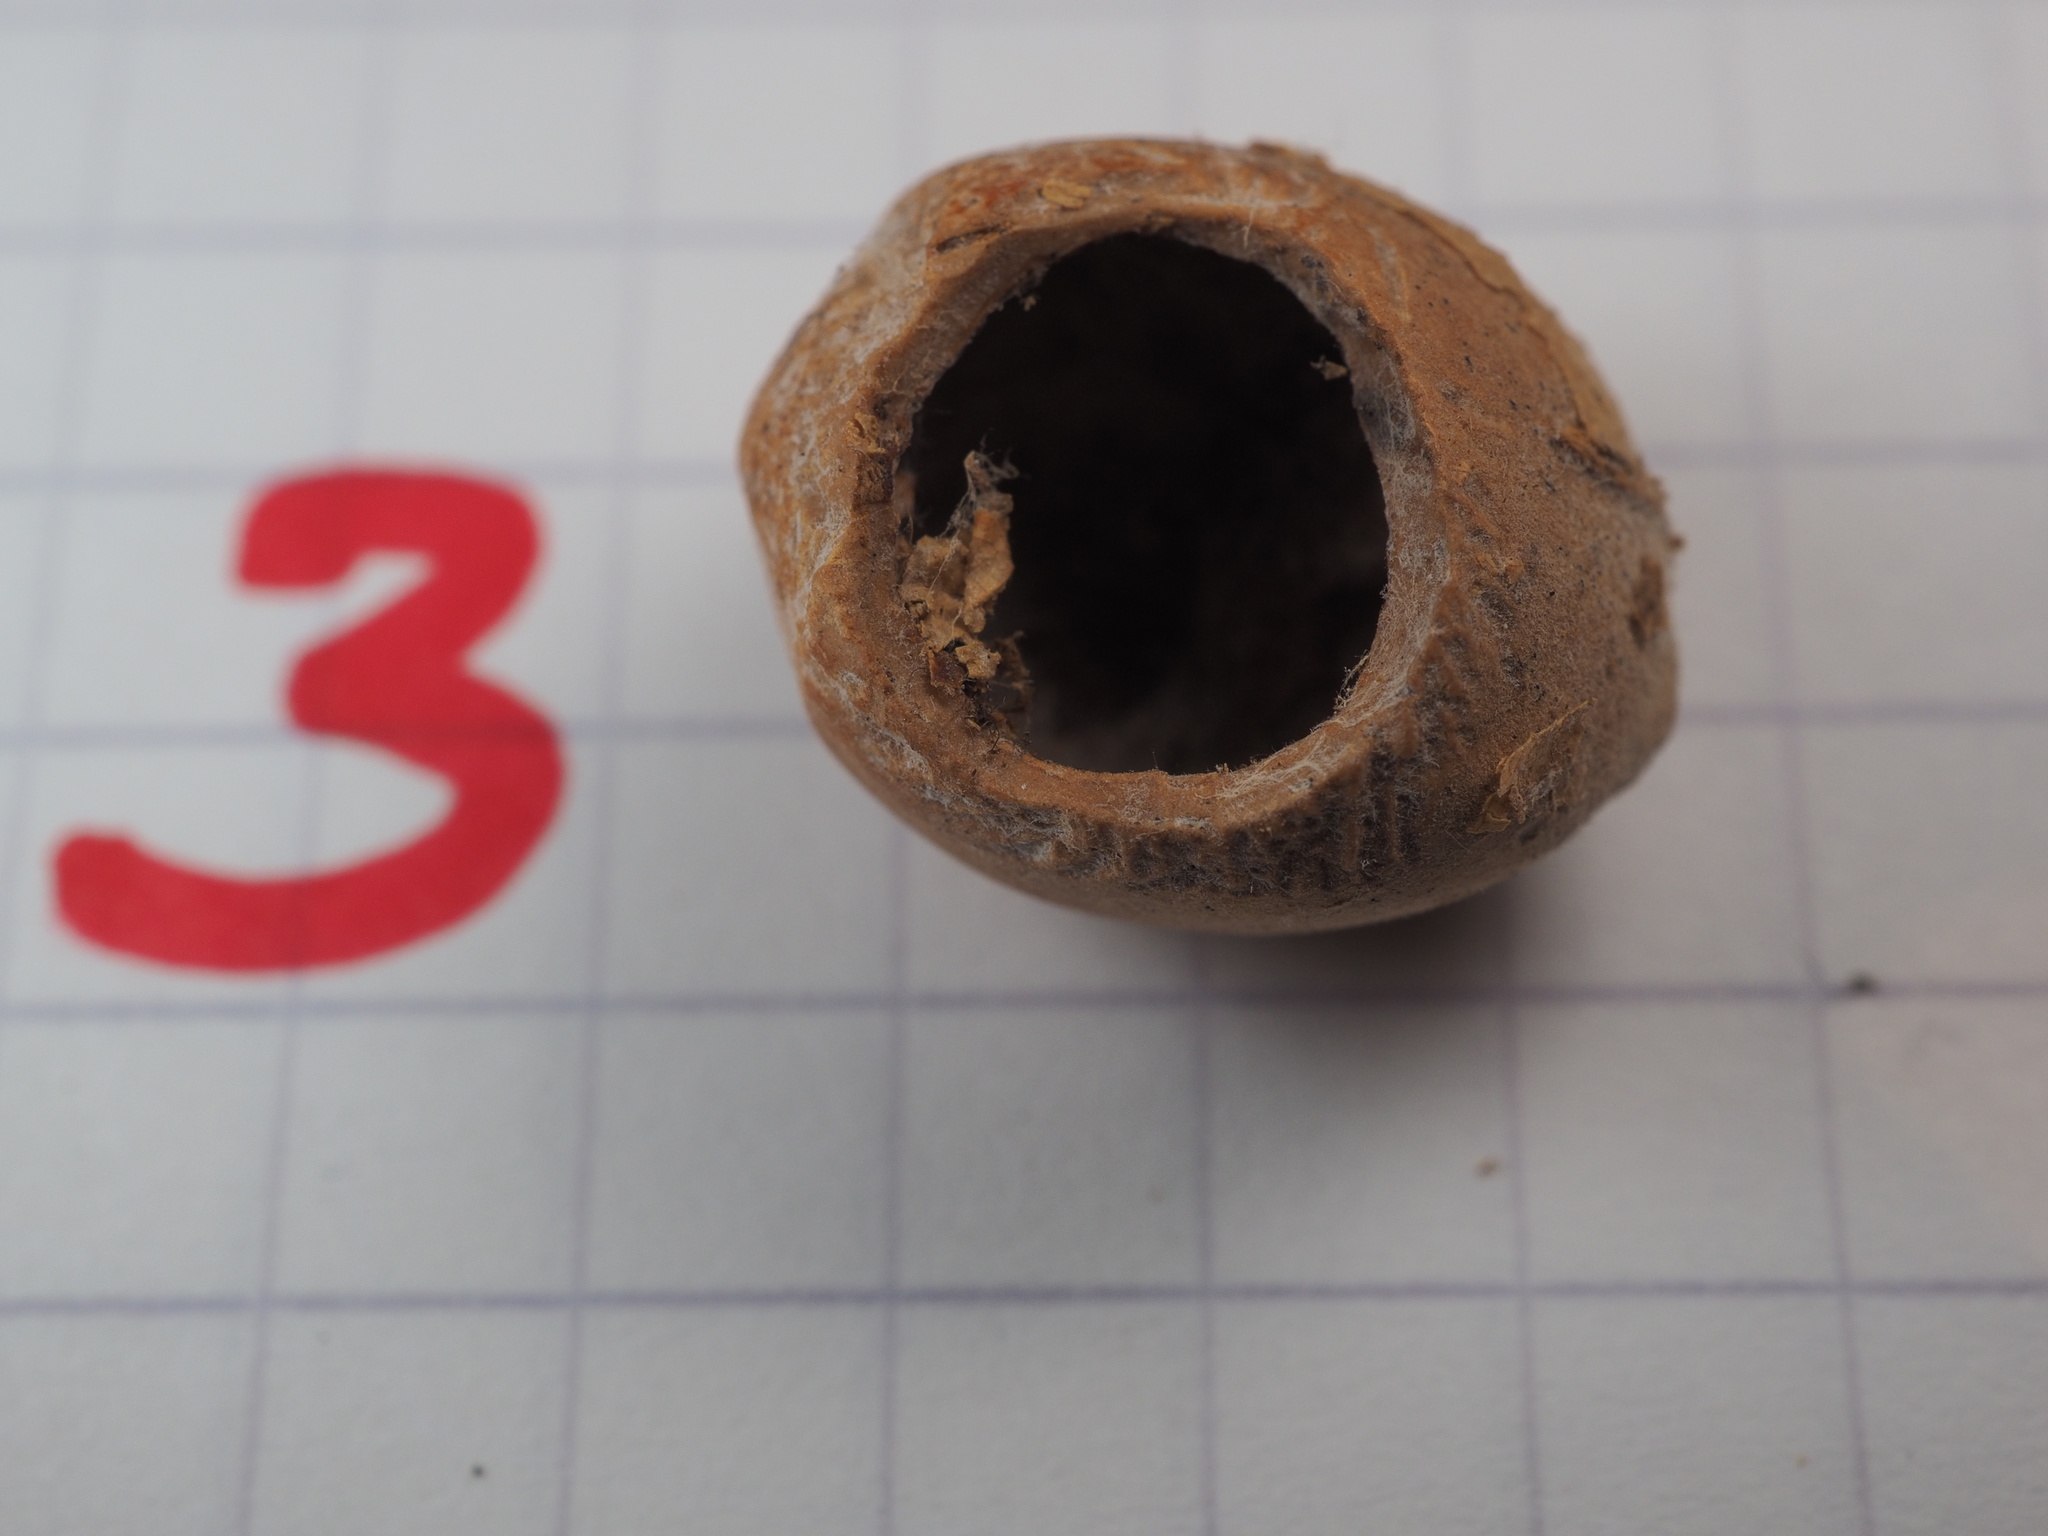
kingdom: Animalia
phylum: Chordata
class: Mammalia
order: Rodentia
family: Gliridae
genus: Muscardinus
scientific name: Muscardinus avellanarius
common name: Hazel dormouse
